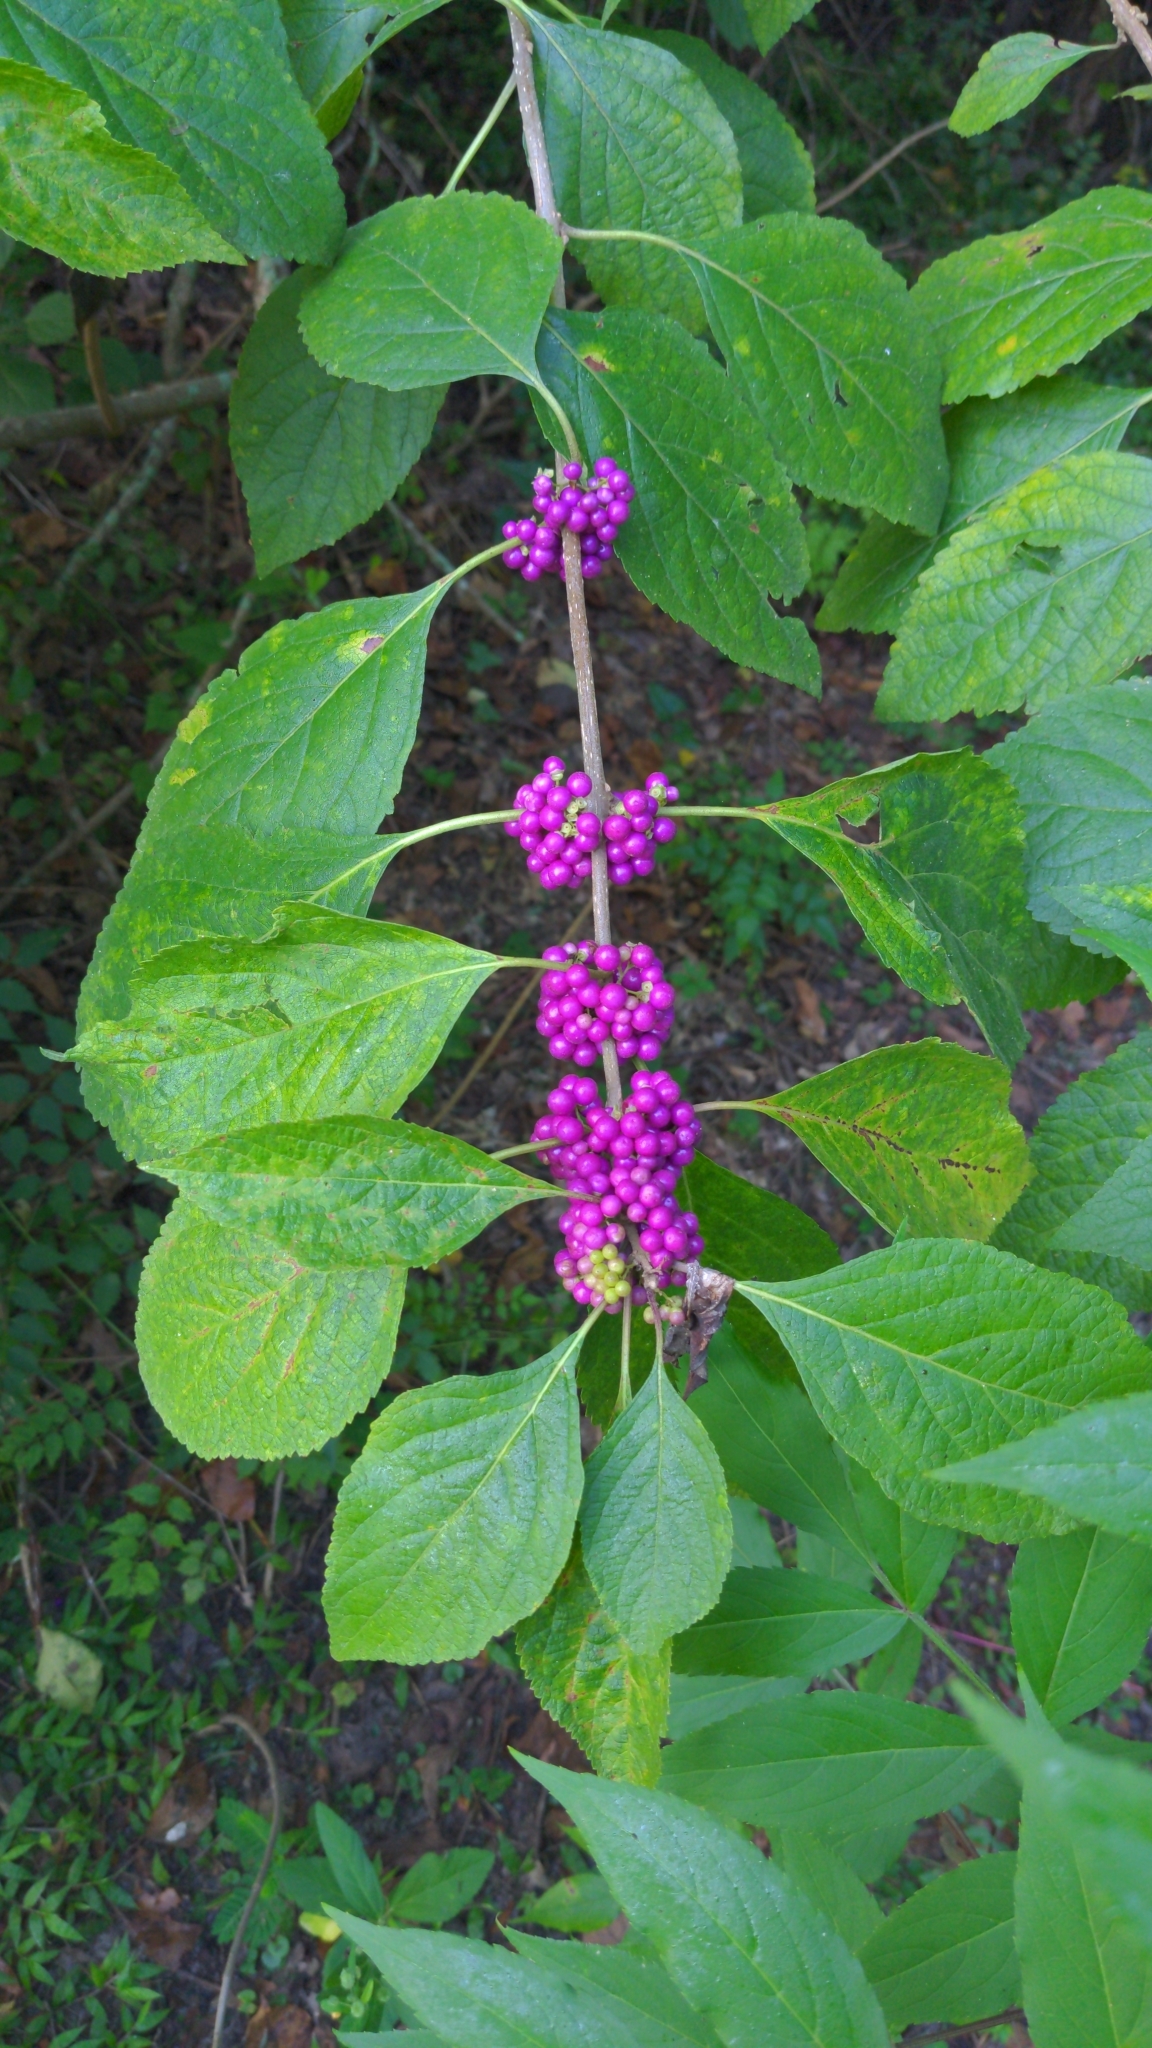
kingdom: Plantae
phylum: Tracheophyta
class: Magnoliopsida
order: Lamiales
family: Lamiaceae
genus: Callicarpa
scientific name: Callicarpa americana
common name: American beautyberry
